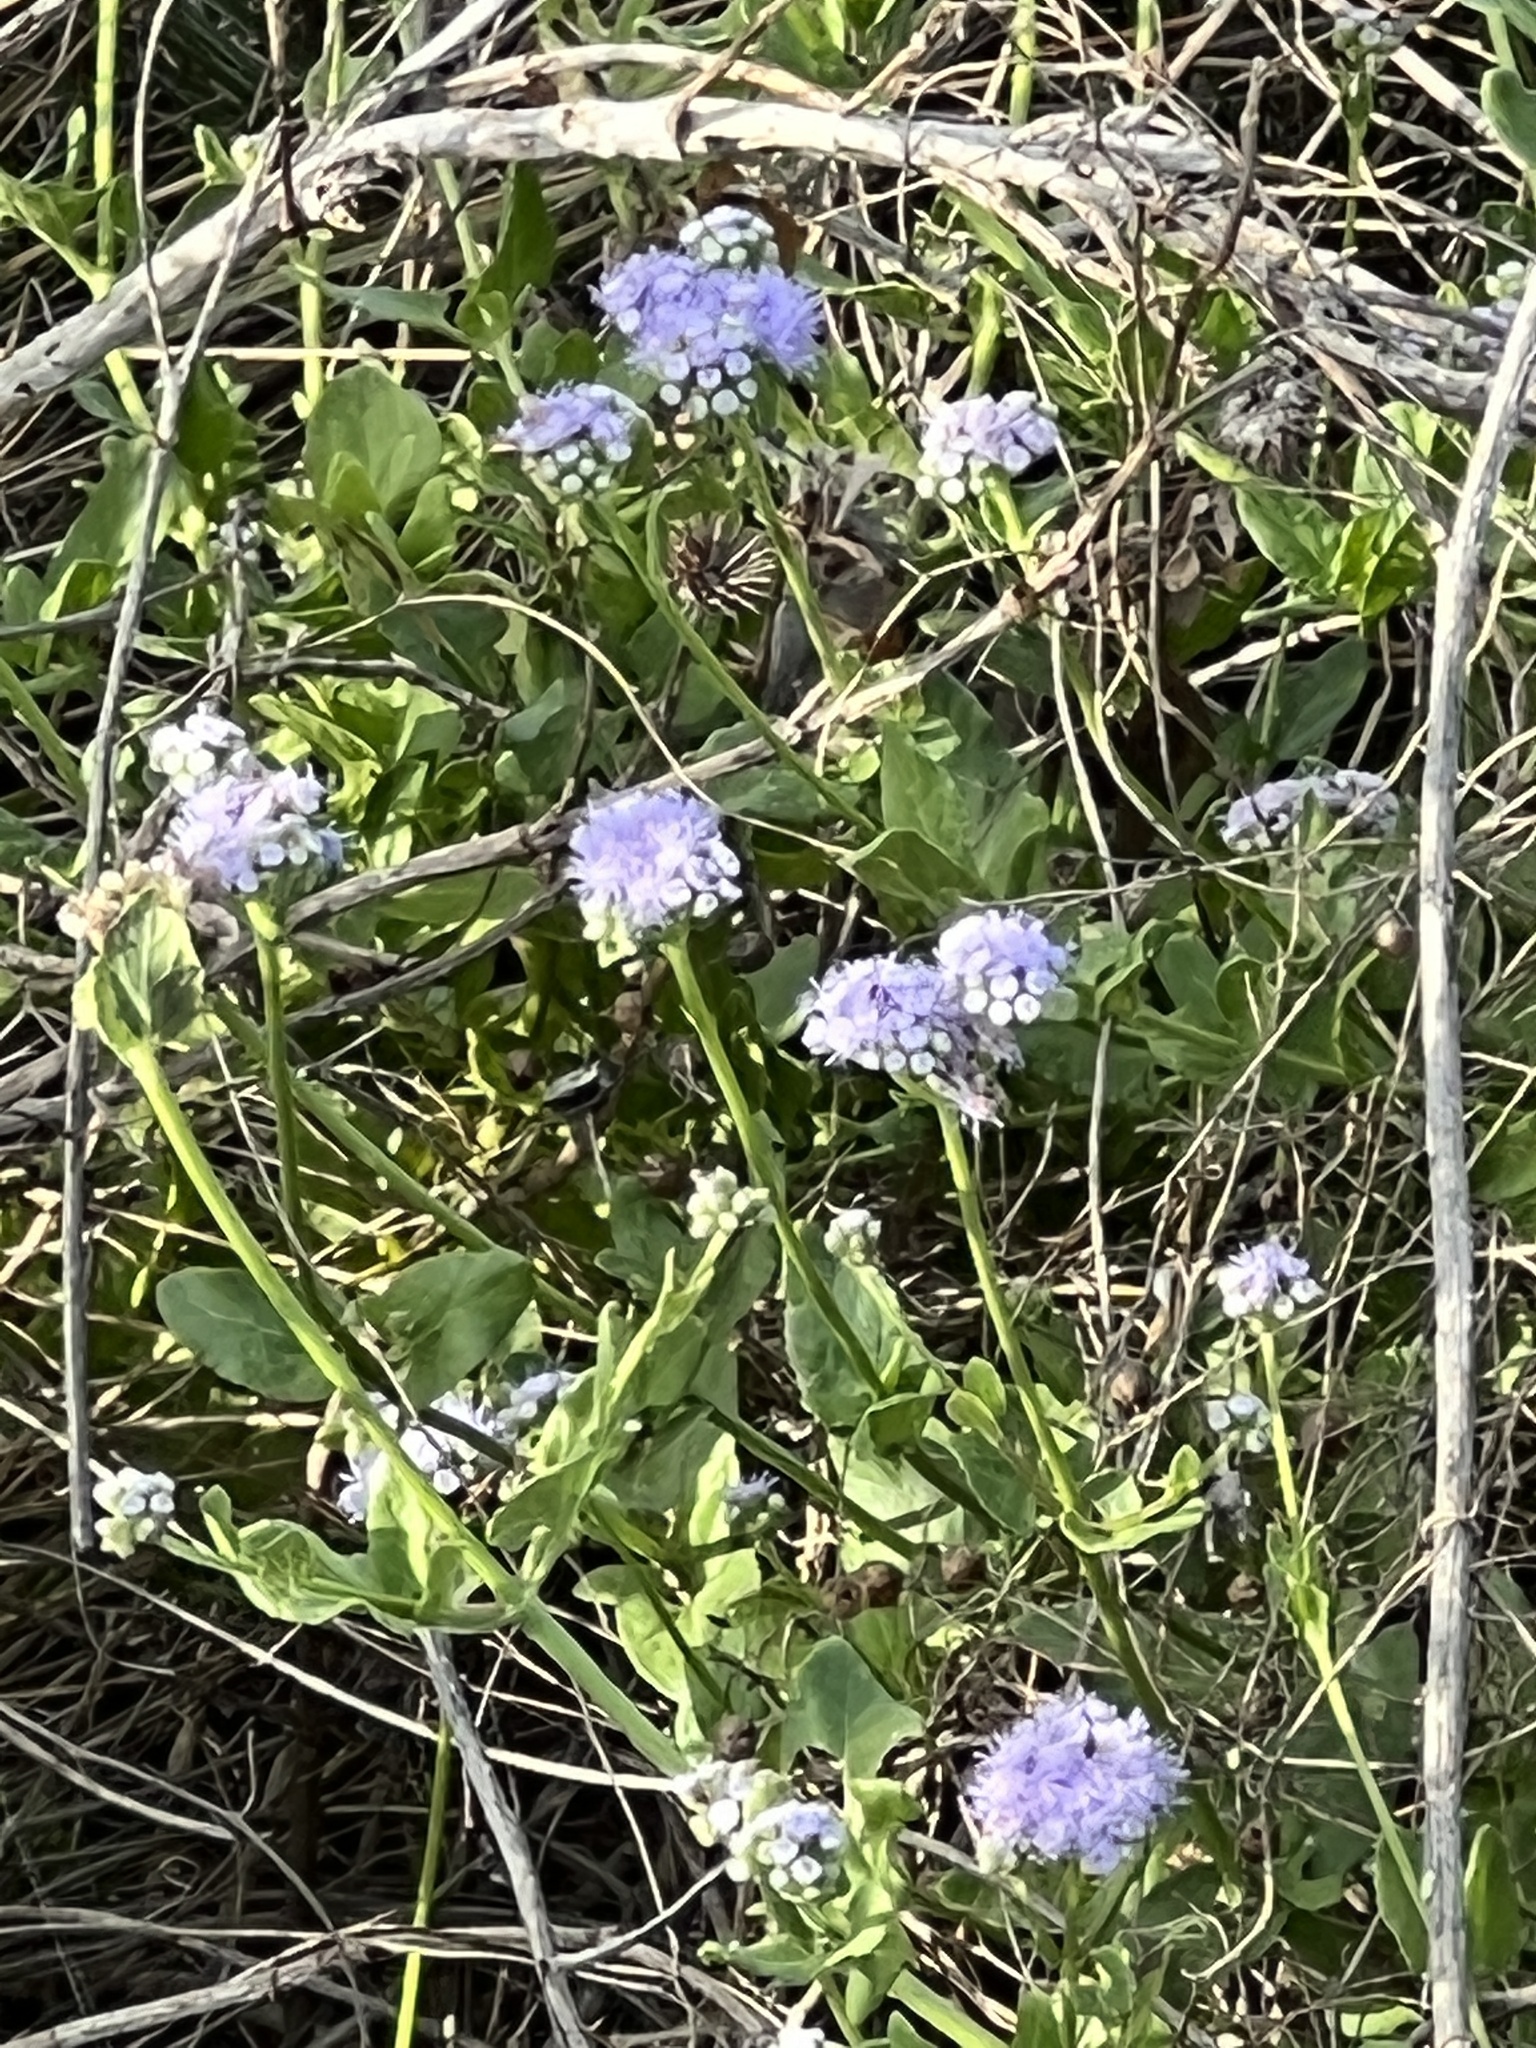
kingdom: Plantae
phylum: Tracheophyta
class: Magnoliopsida
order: Asterales
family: Asteraceae
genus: Conoclinium
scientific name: Conoclinium betonicifolium
